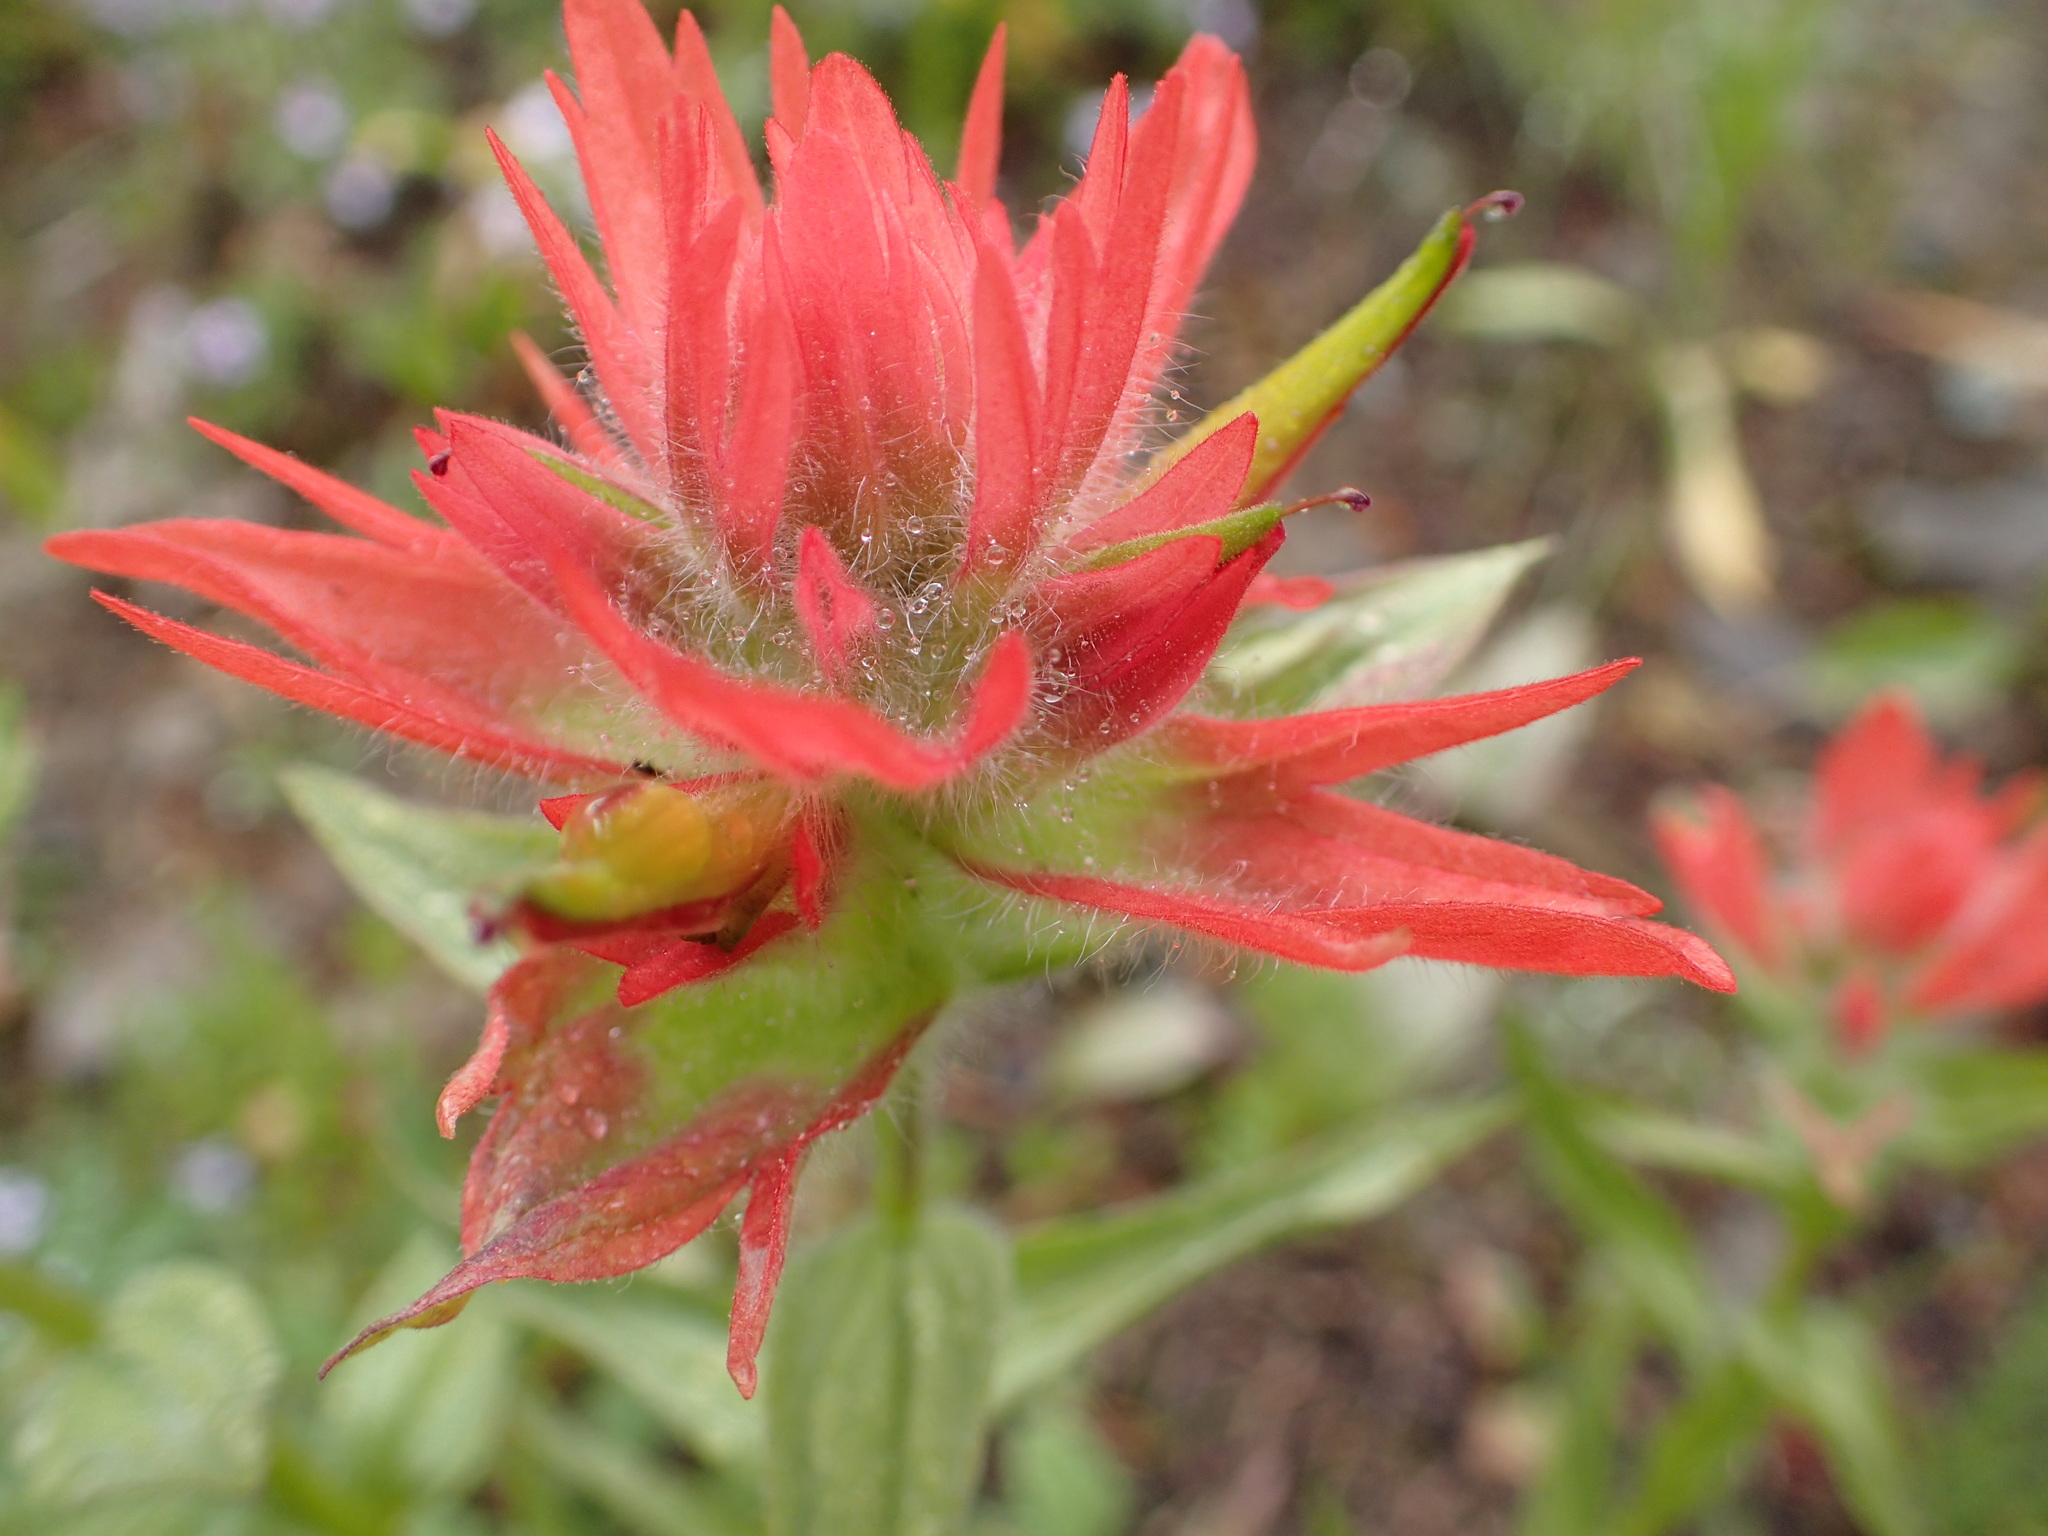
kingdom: Plantae
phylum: Tracheophyta
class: Magnoliopsida
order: Lamiales
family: Orobanchaceae
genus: Castilleja
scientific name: Castilleja miniata
